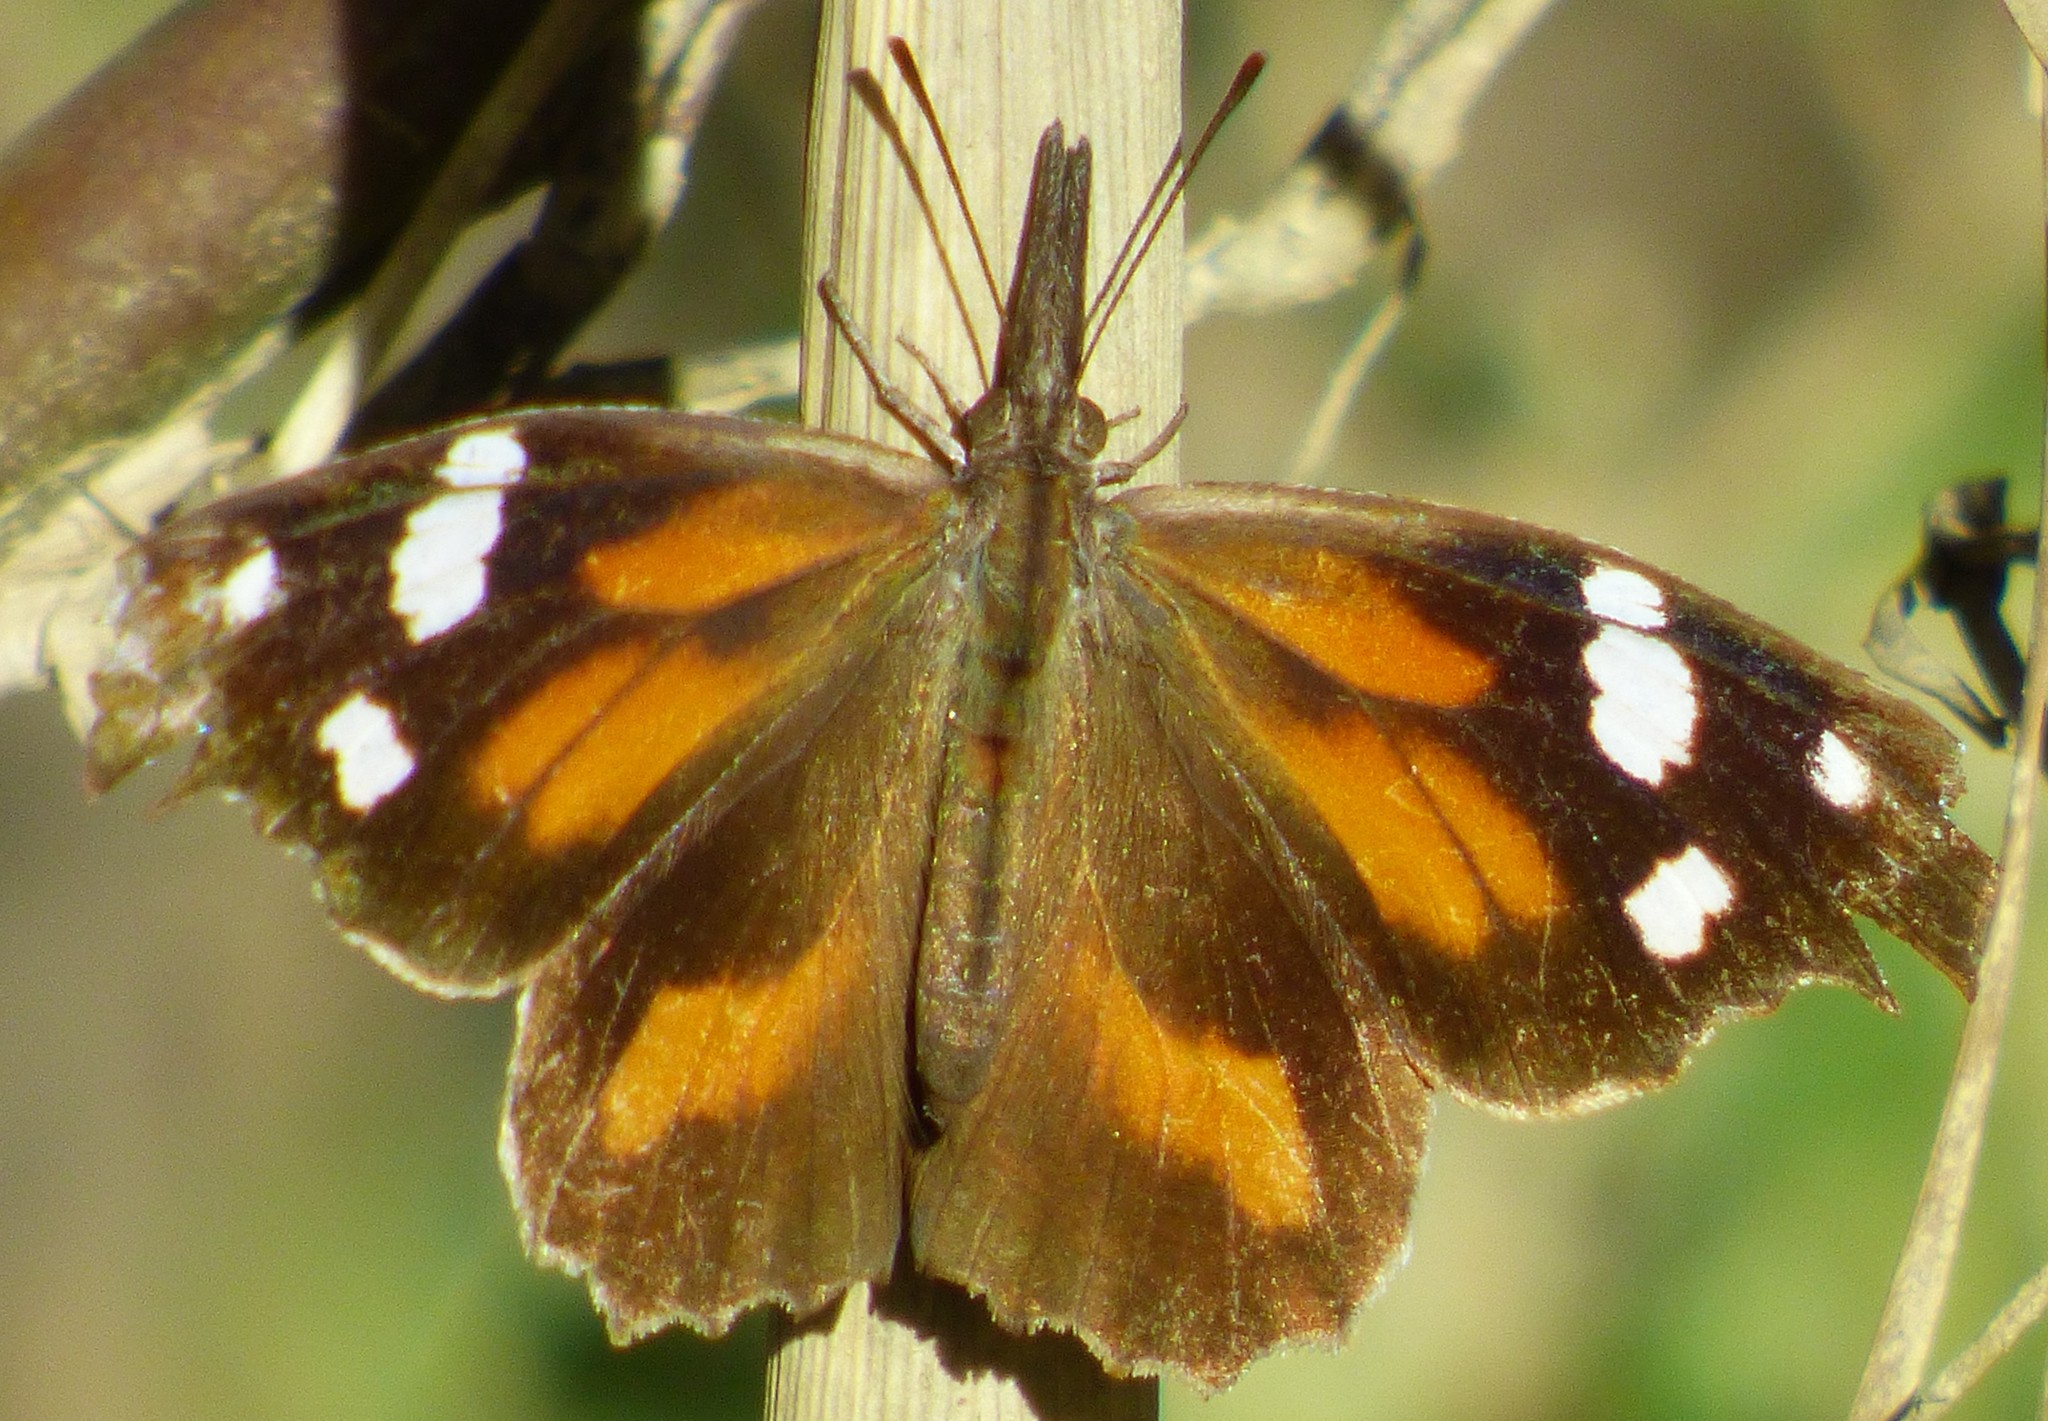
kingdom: Animalia
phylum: Arthropoda
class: Insecta
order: Lepidoptera
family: Nymphalidae
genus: Libytheana
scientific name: Libytheana carinenta
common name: American snout
